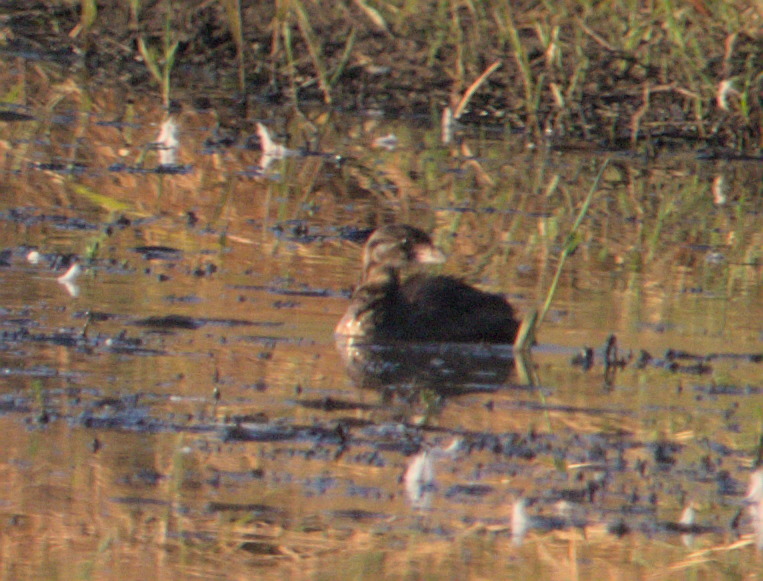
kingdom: Animalia
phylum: Chordata
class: Aves
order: Podicipediformes
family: Podicipedidae
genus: Podilymbus
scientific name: Podilymbus podiceps
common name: Pied-billed grebe
